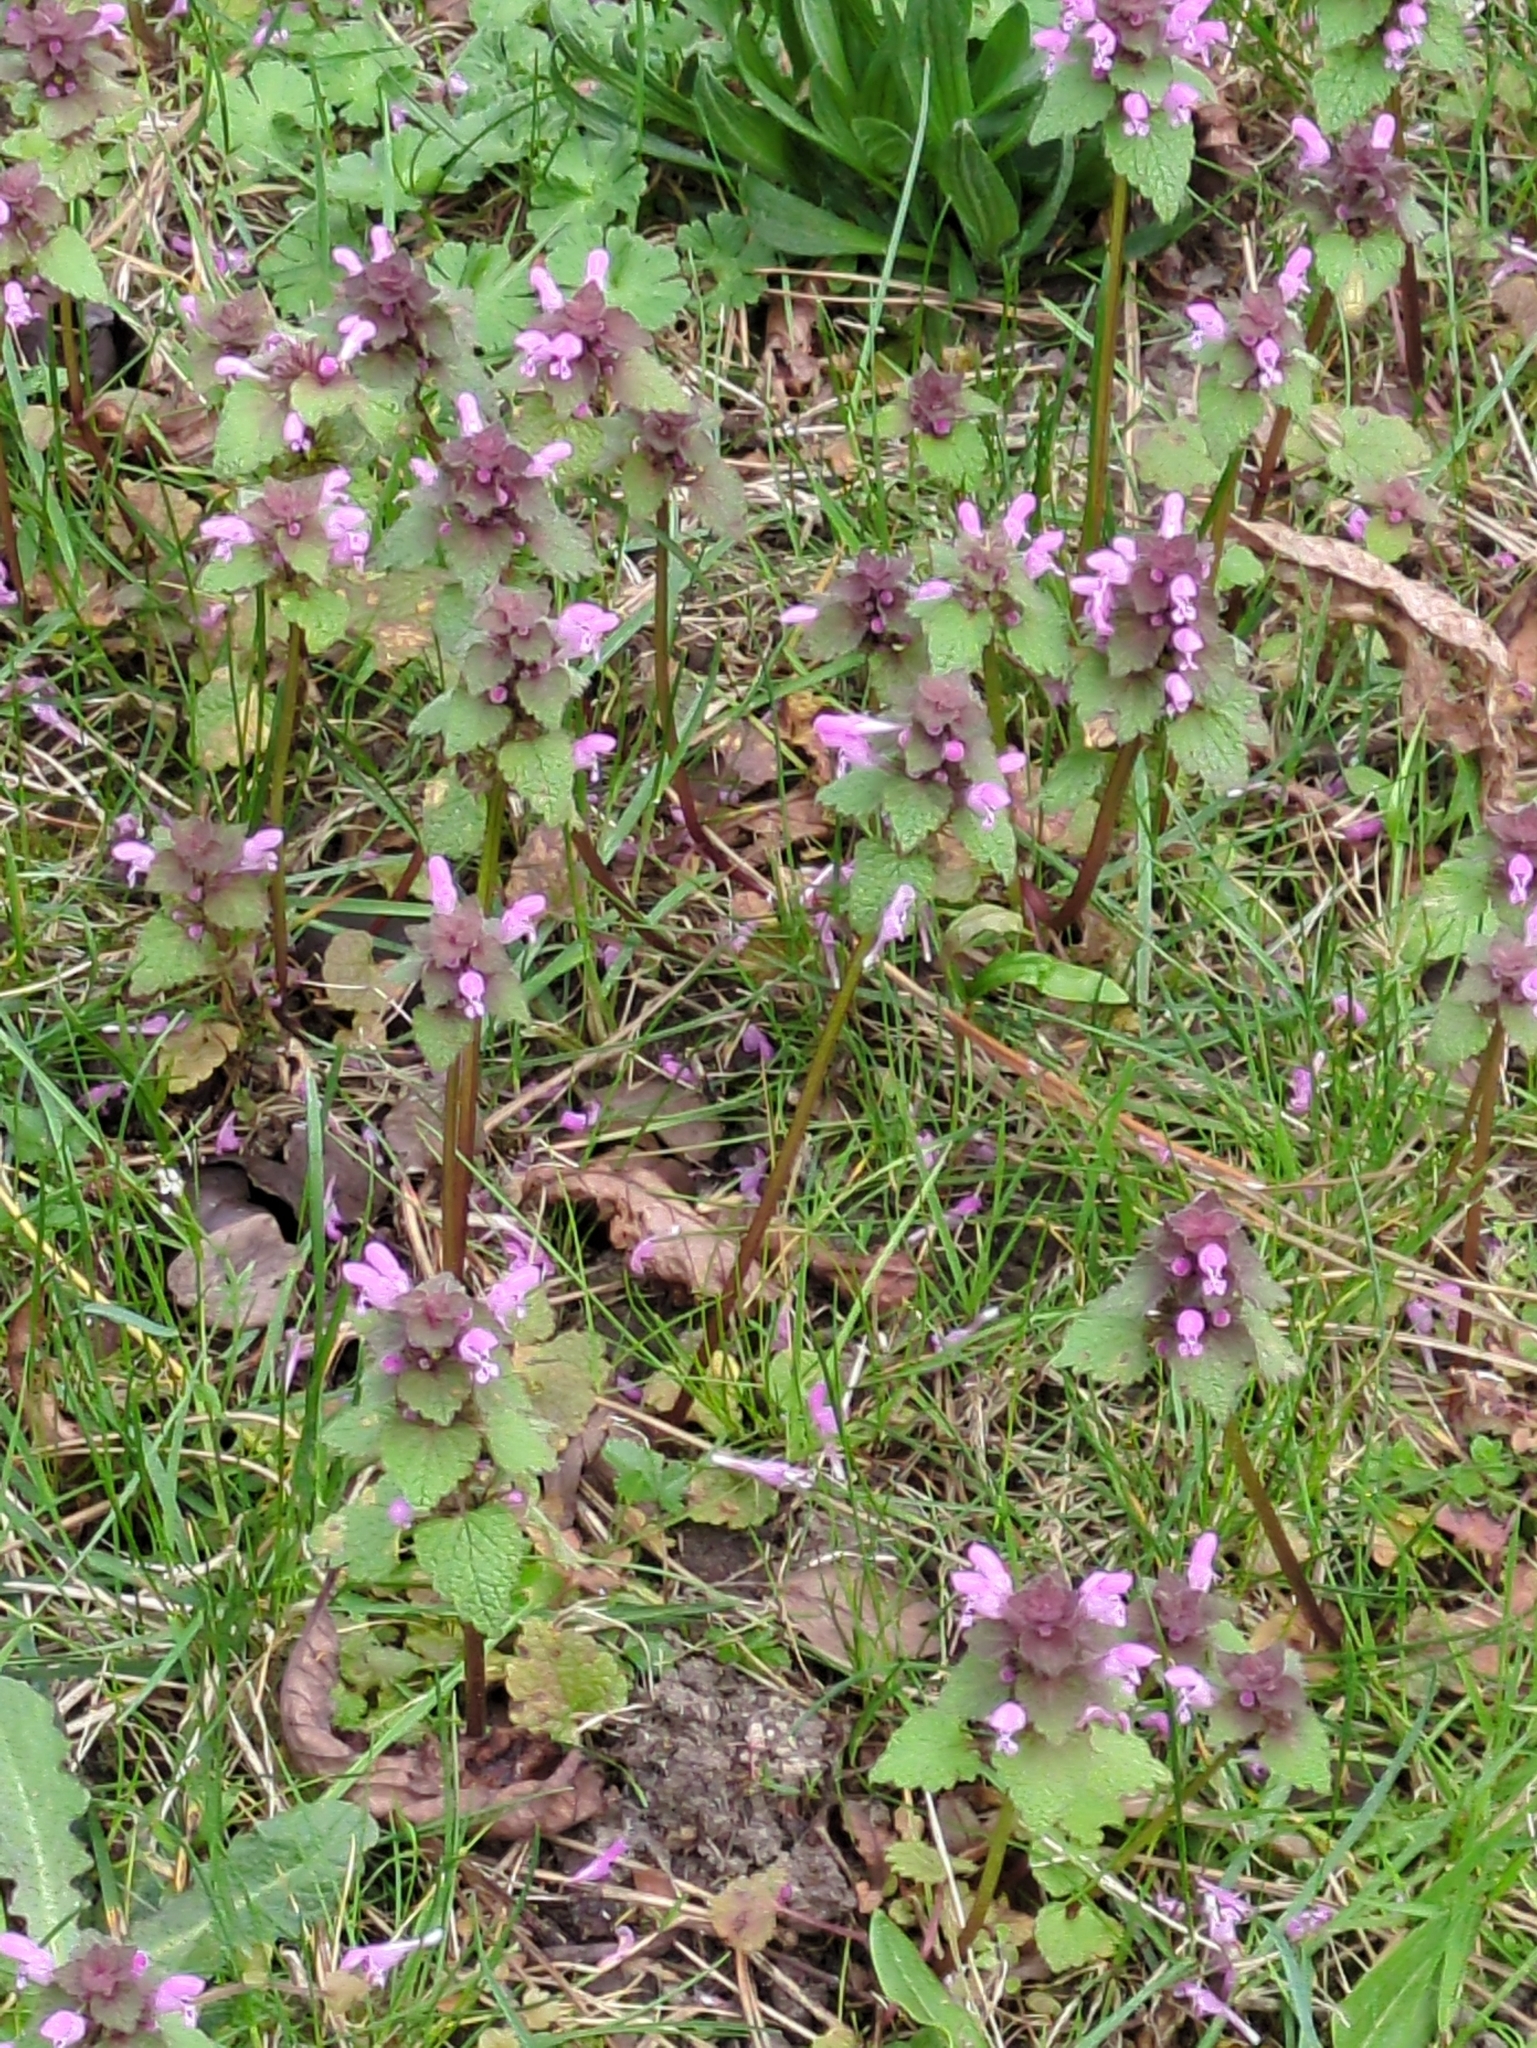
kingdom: Plantae
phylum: Tracheophyta
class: Magnoliopsida
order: Lamiales
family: Lamiaceae
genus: Lamium
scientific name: Lamium purpureum
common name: Red dead-nettle
